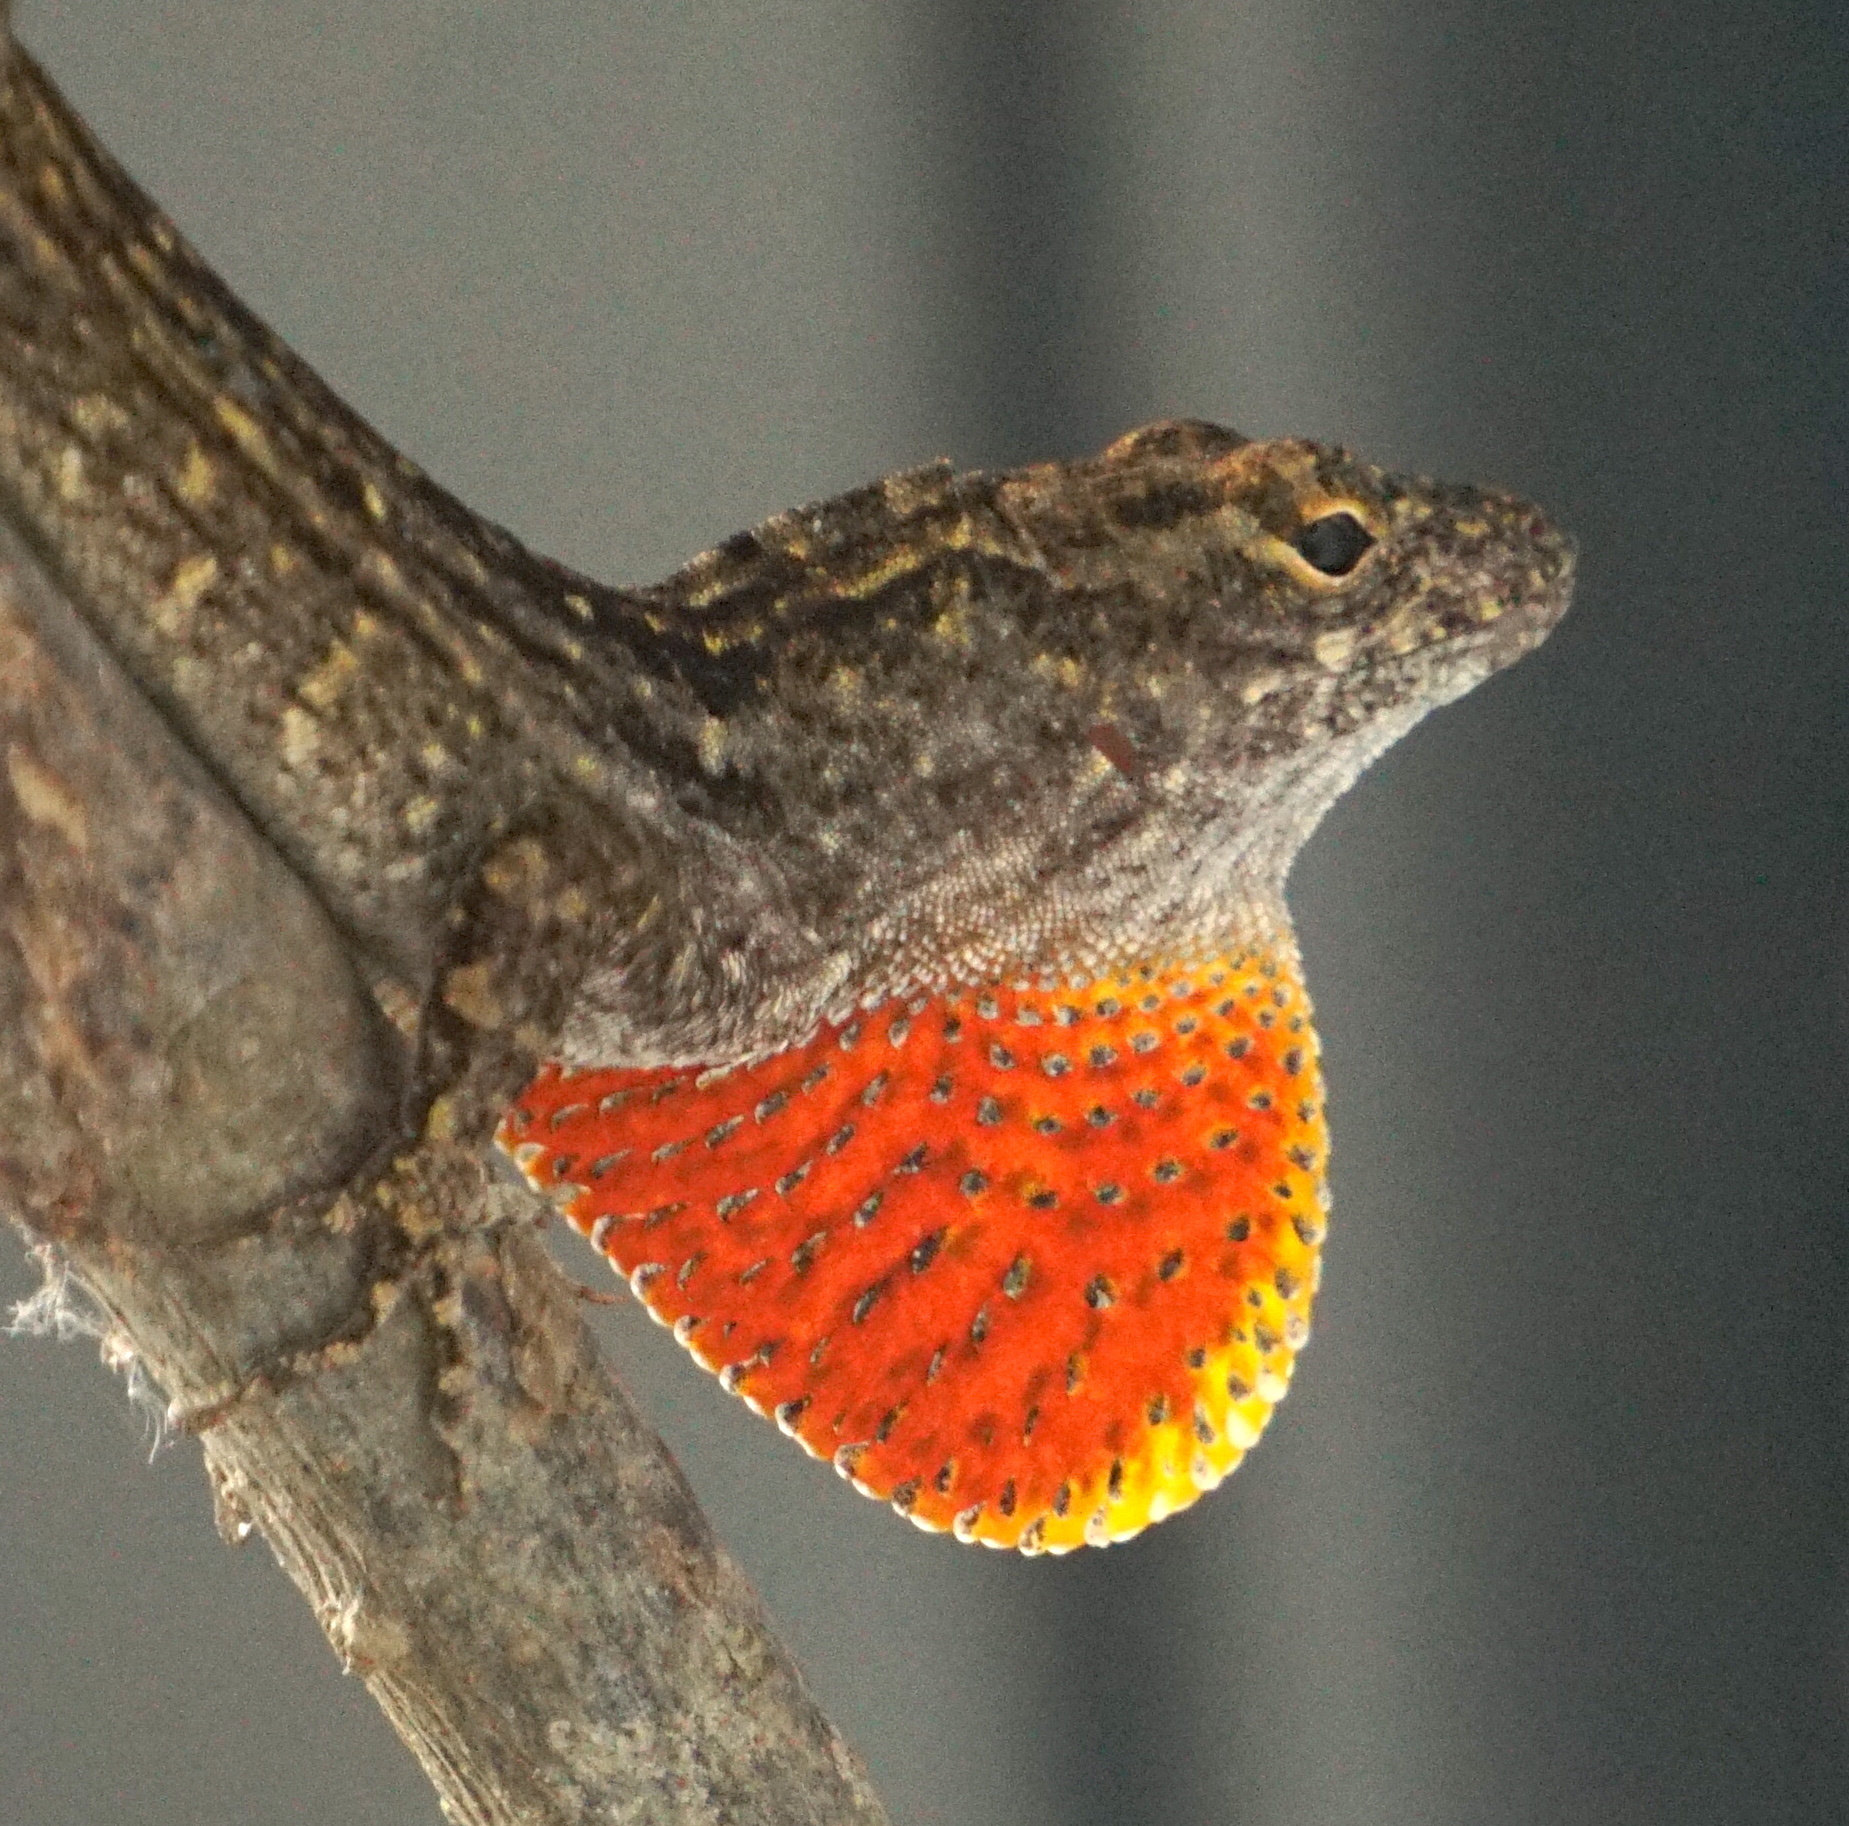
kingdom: Animalia
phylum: Chordata
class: Squamata
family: Dactyloidae
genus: Anolis
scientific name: Anolis sagrei
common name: Brown anole
